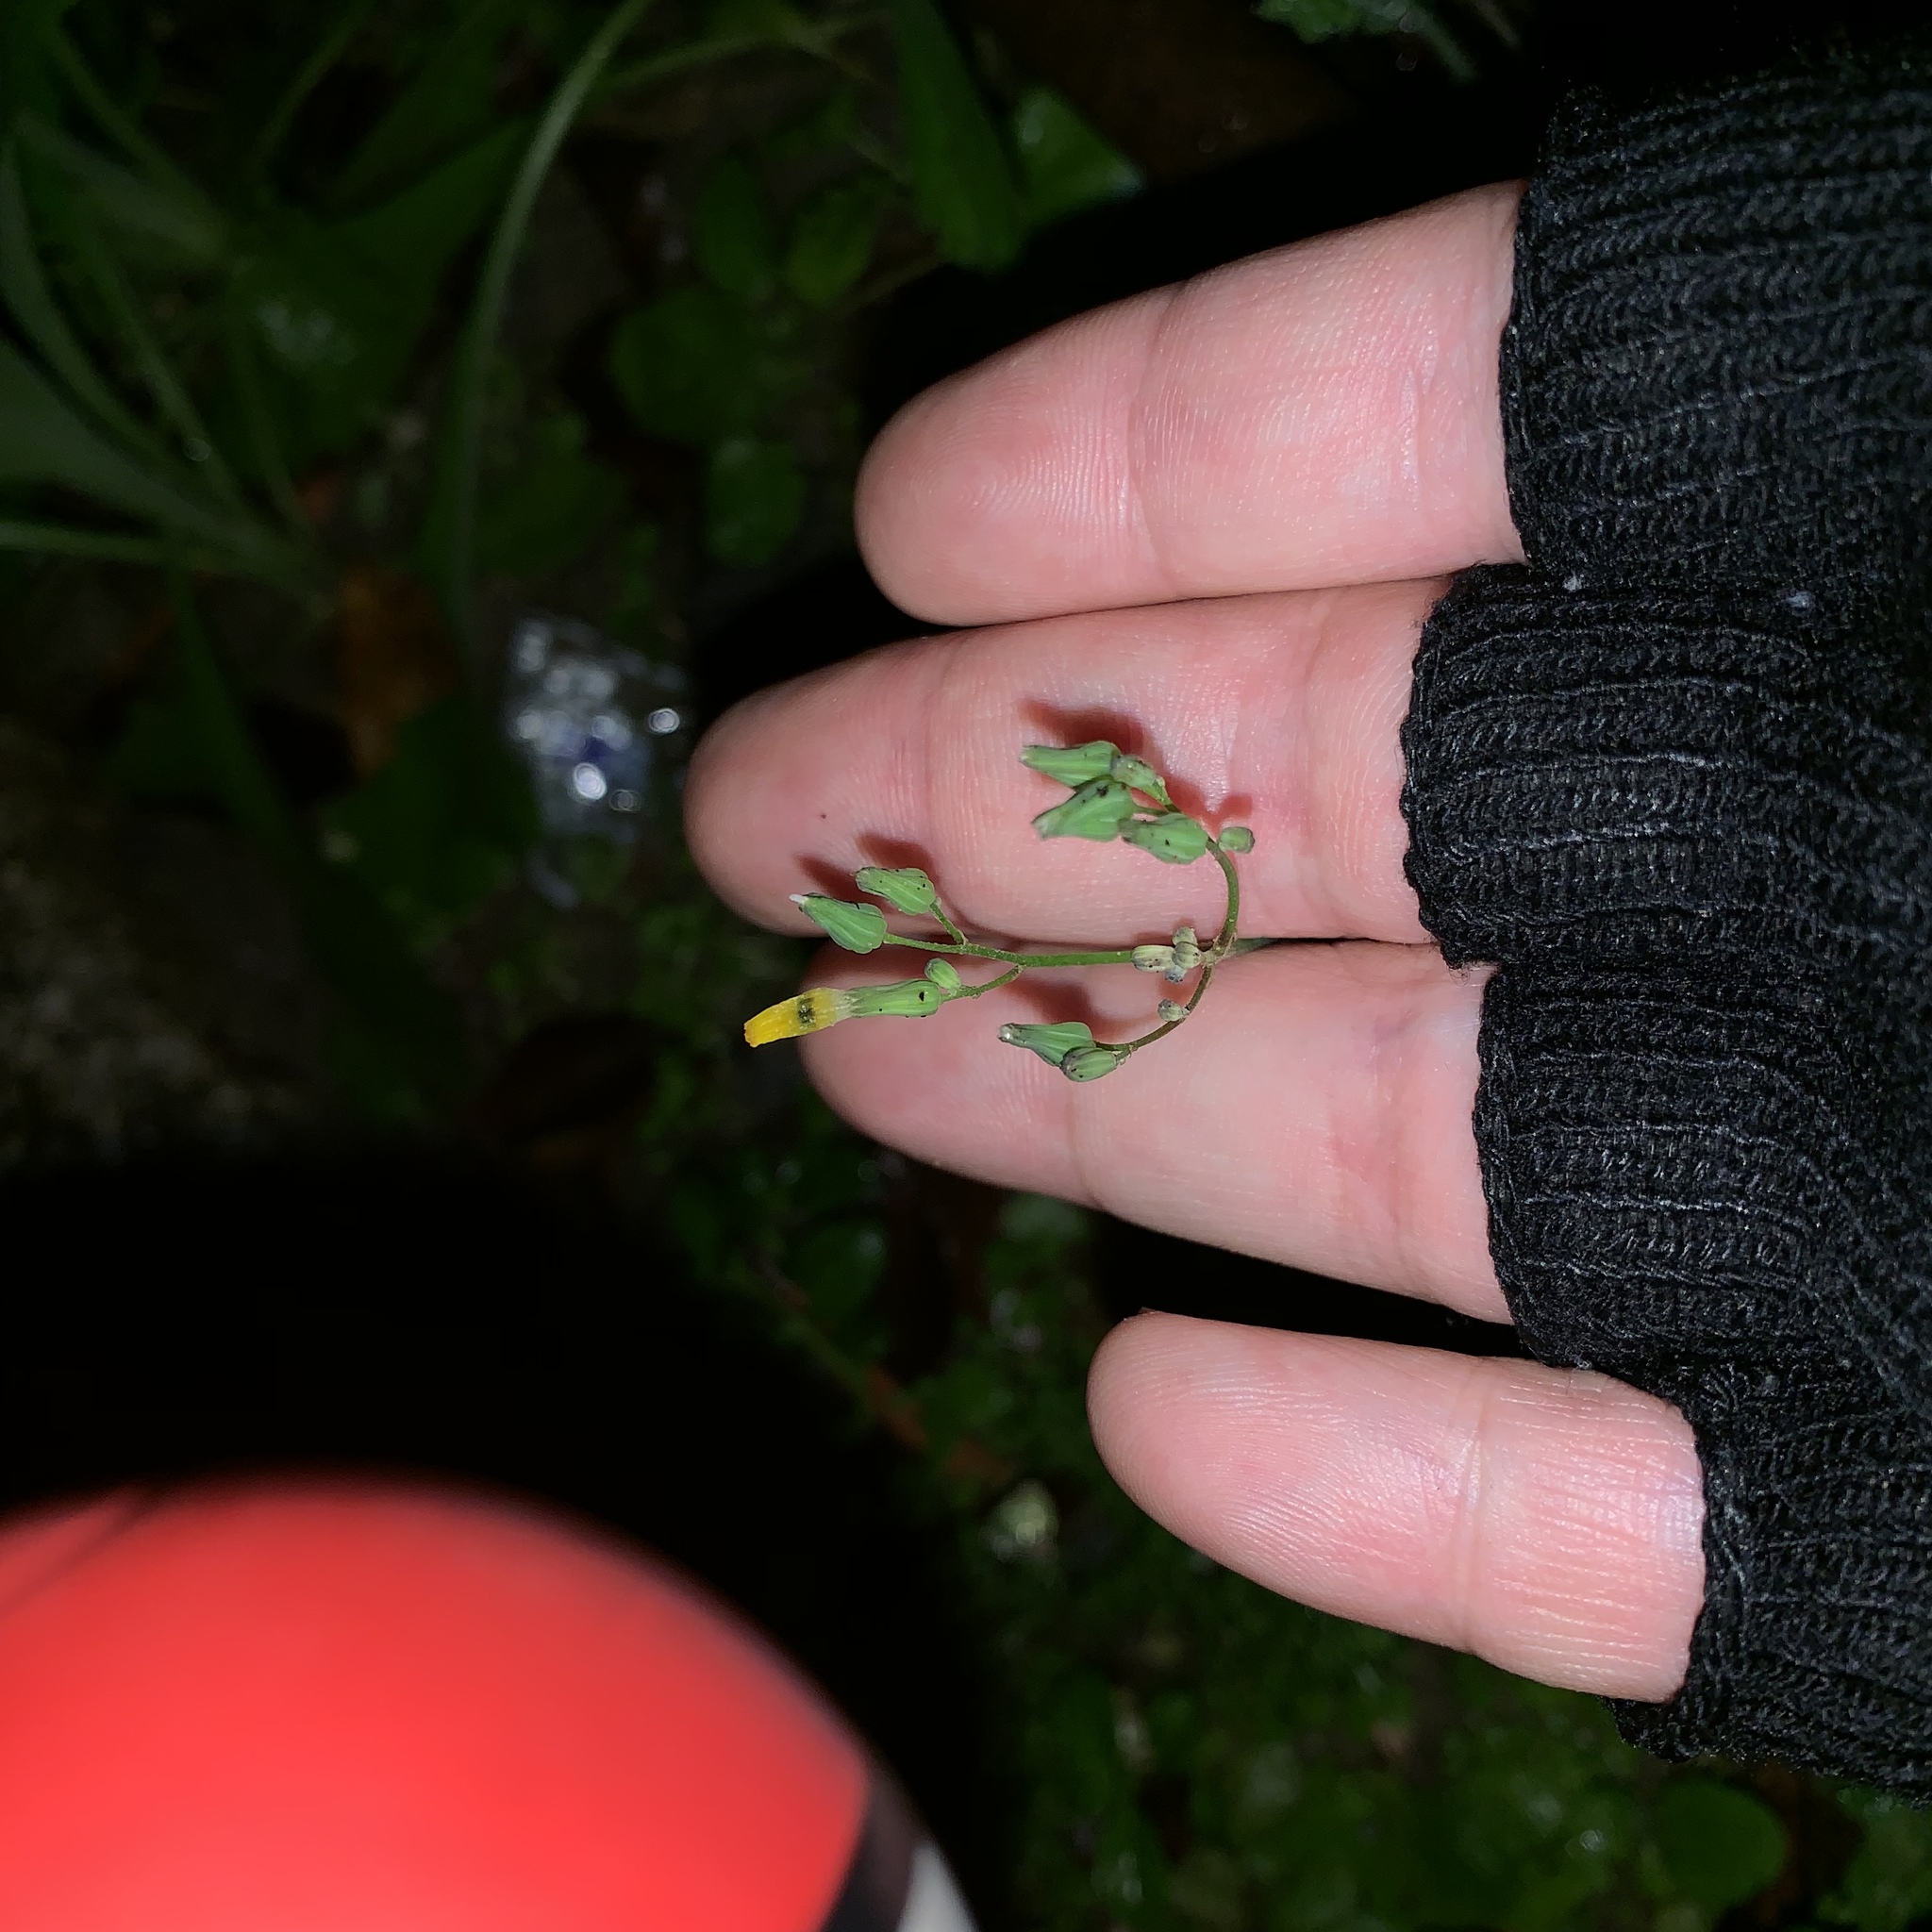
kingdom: Plantae
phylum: Tracheophyta
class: Magnoliopsida
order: Asterales
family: Asteraceae
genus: Youngia
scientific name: Youngia japonica
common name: Oriental false hawksbeard
